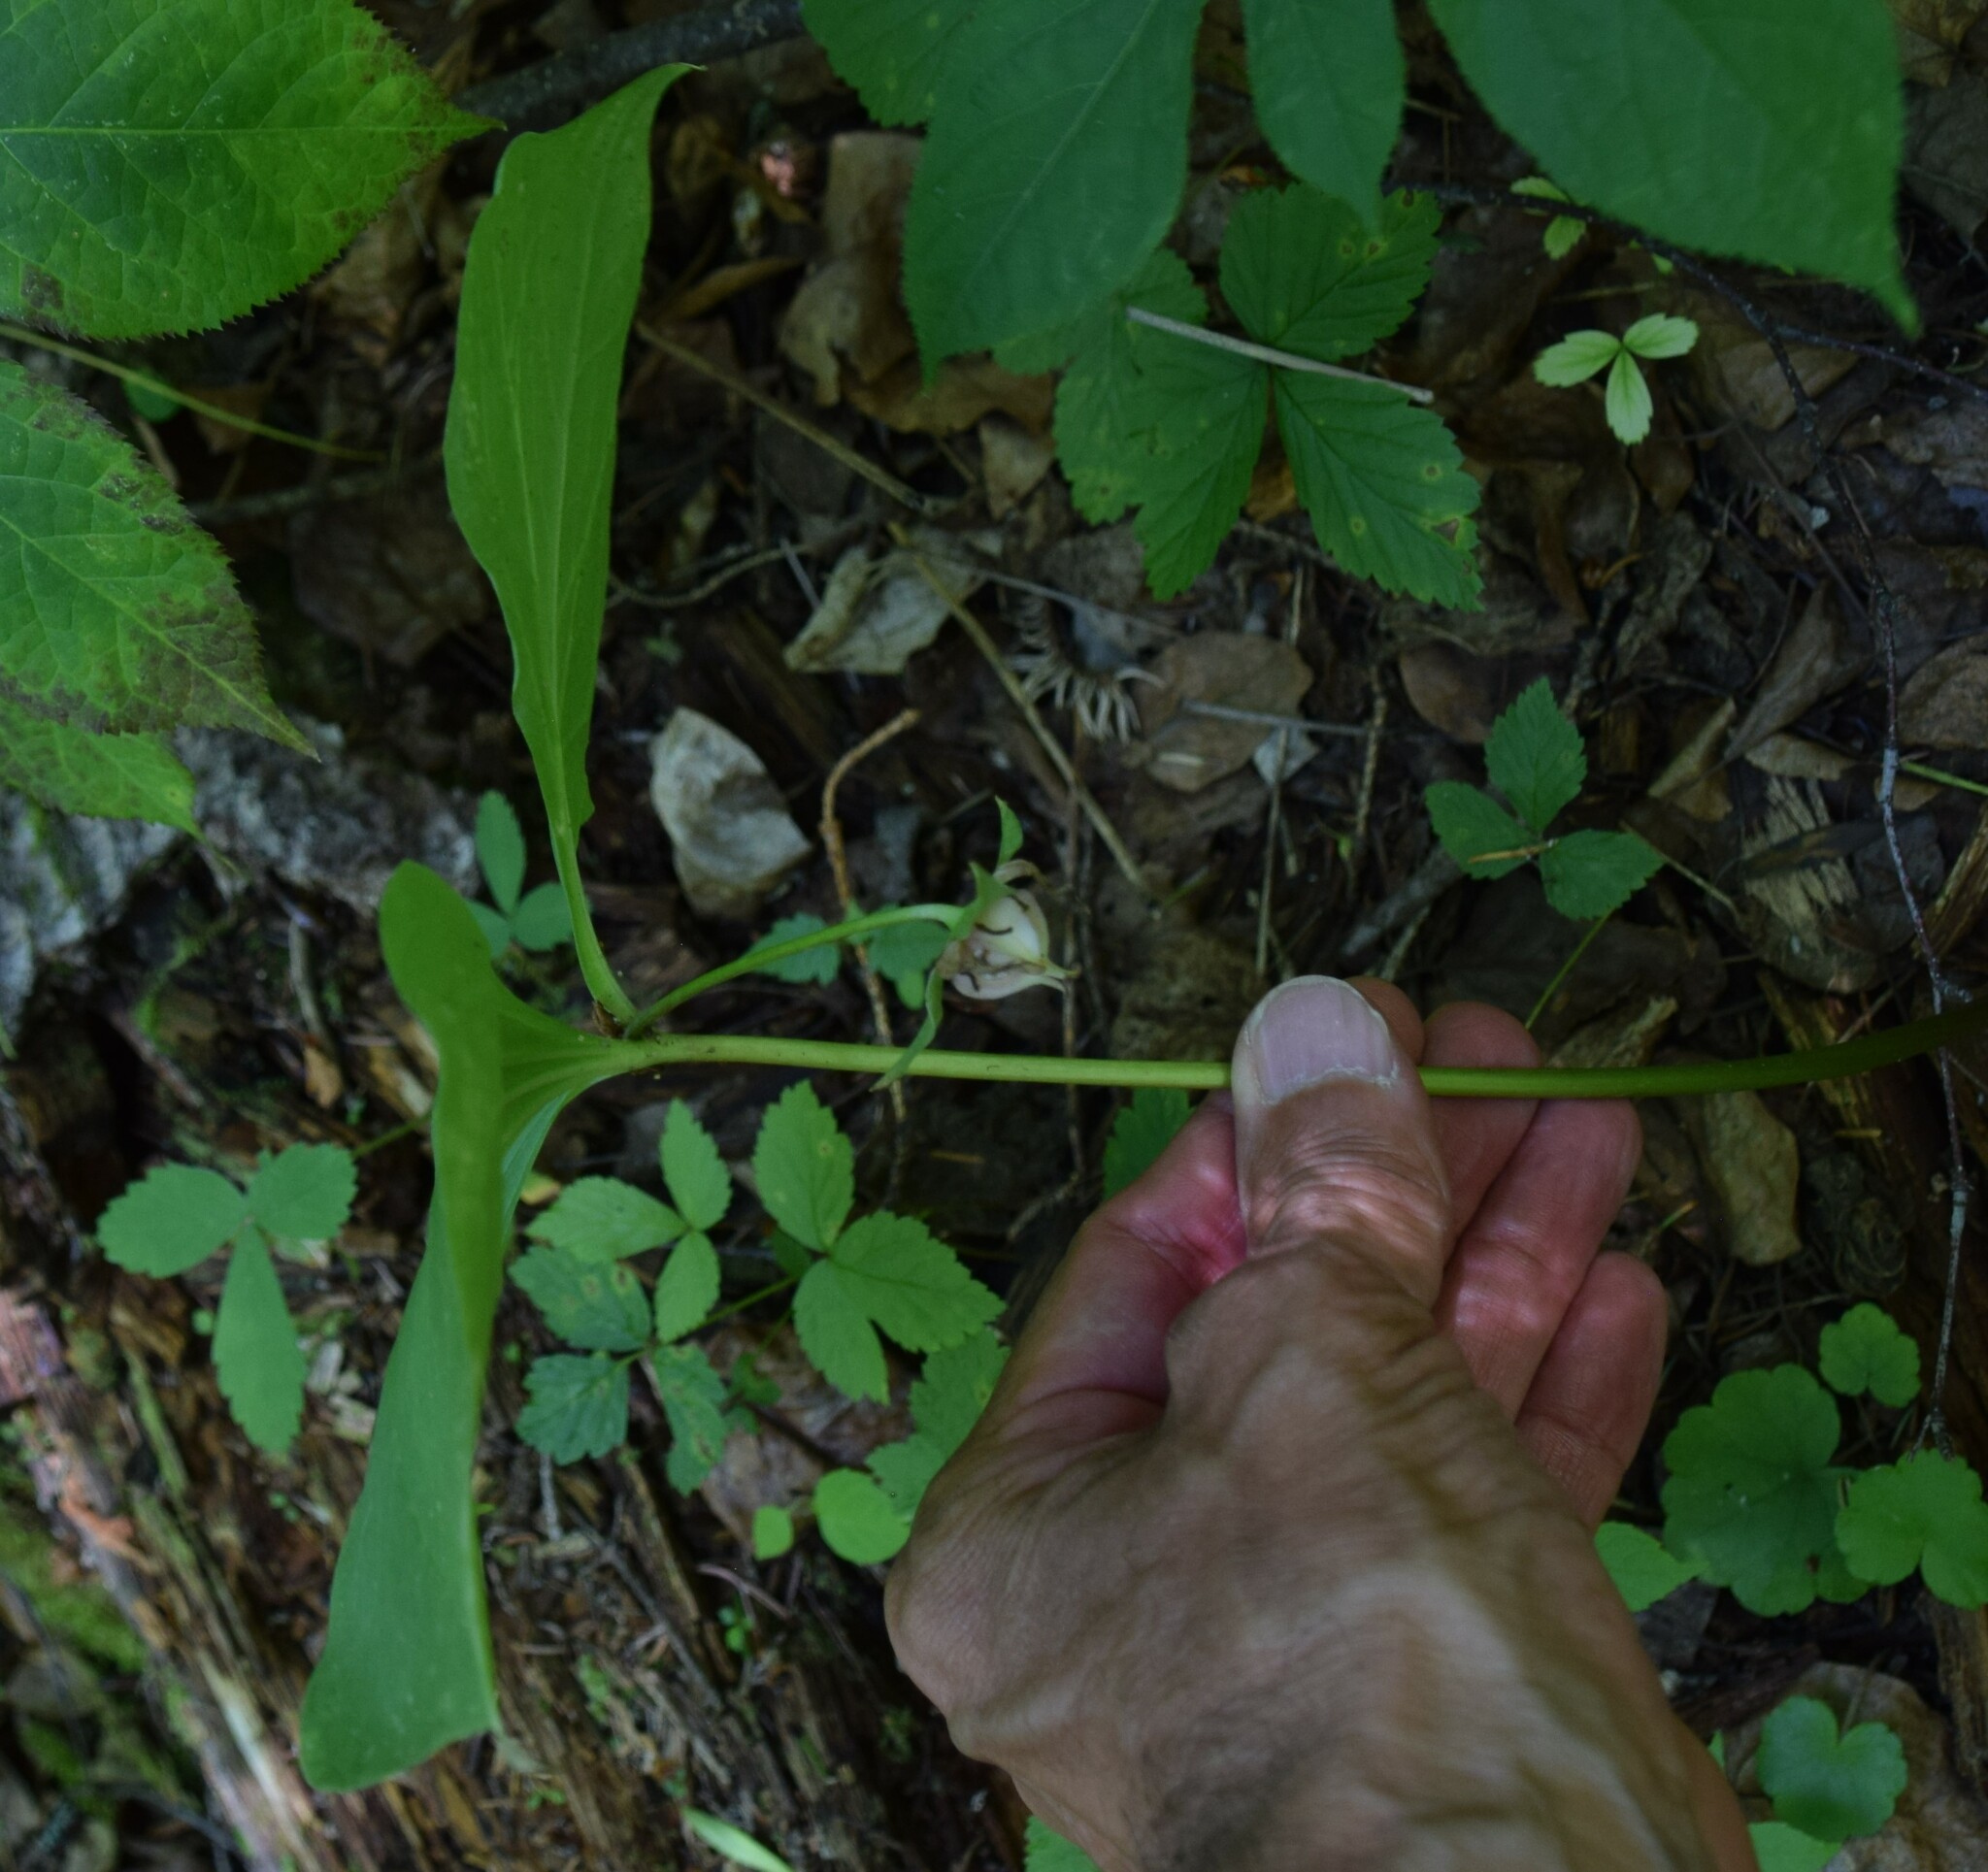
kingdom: Plantae
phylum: Tracheophyta
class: Liliopsida
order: Liliales
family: Melanthiaceae
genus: Trillium
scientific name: Trillium cernuum
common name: Nodding trillium
